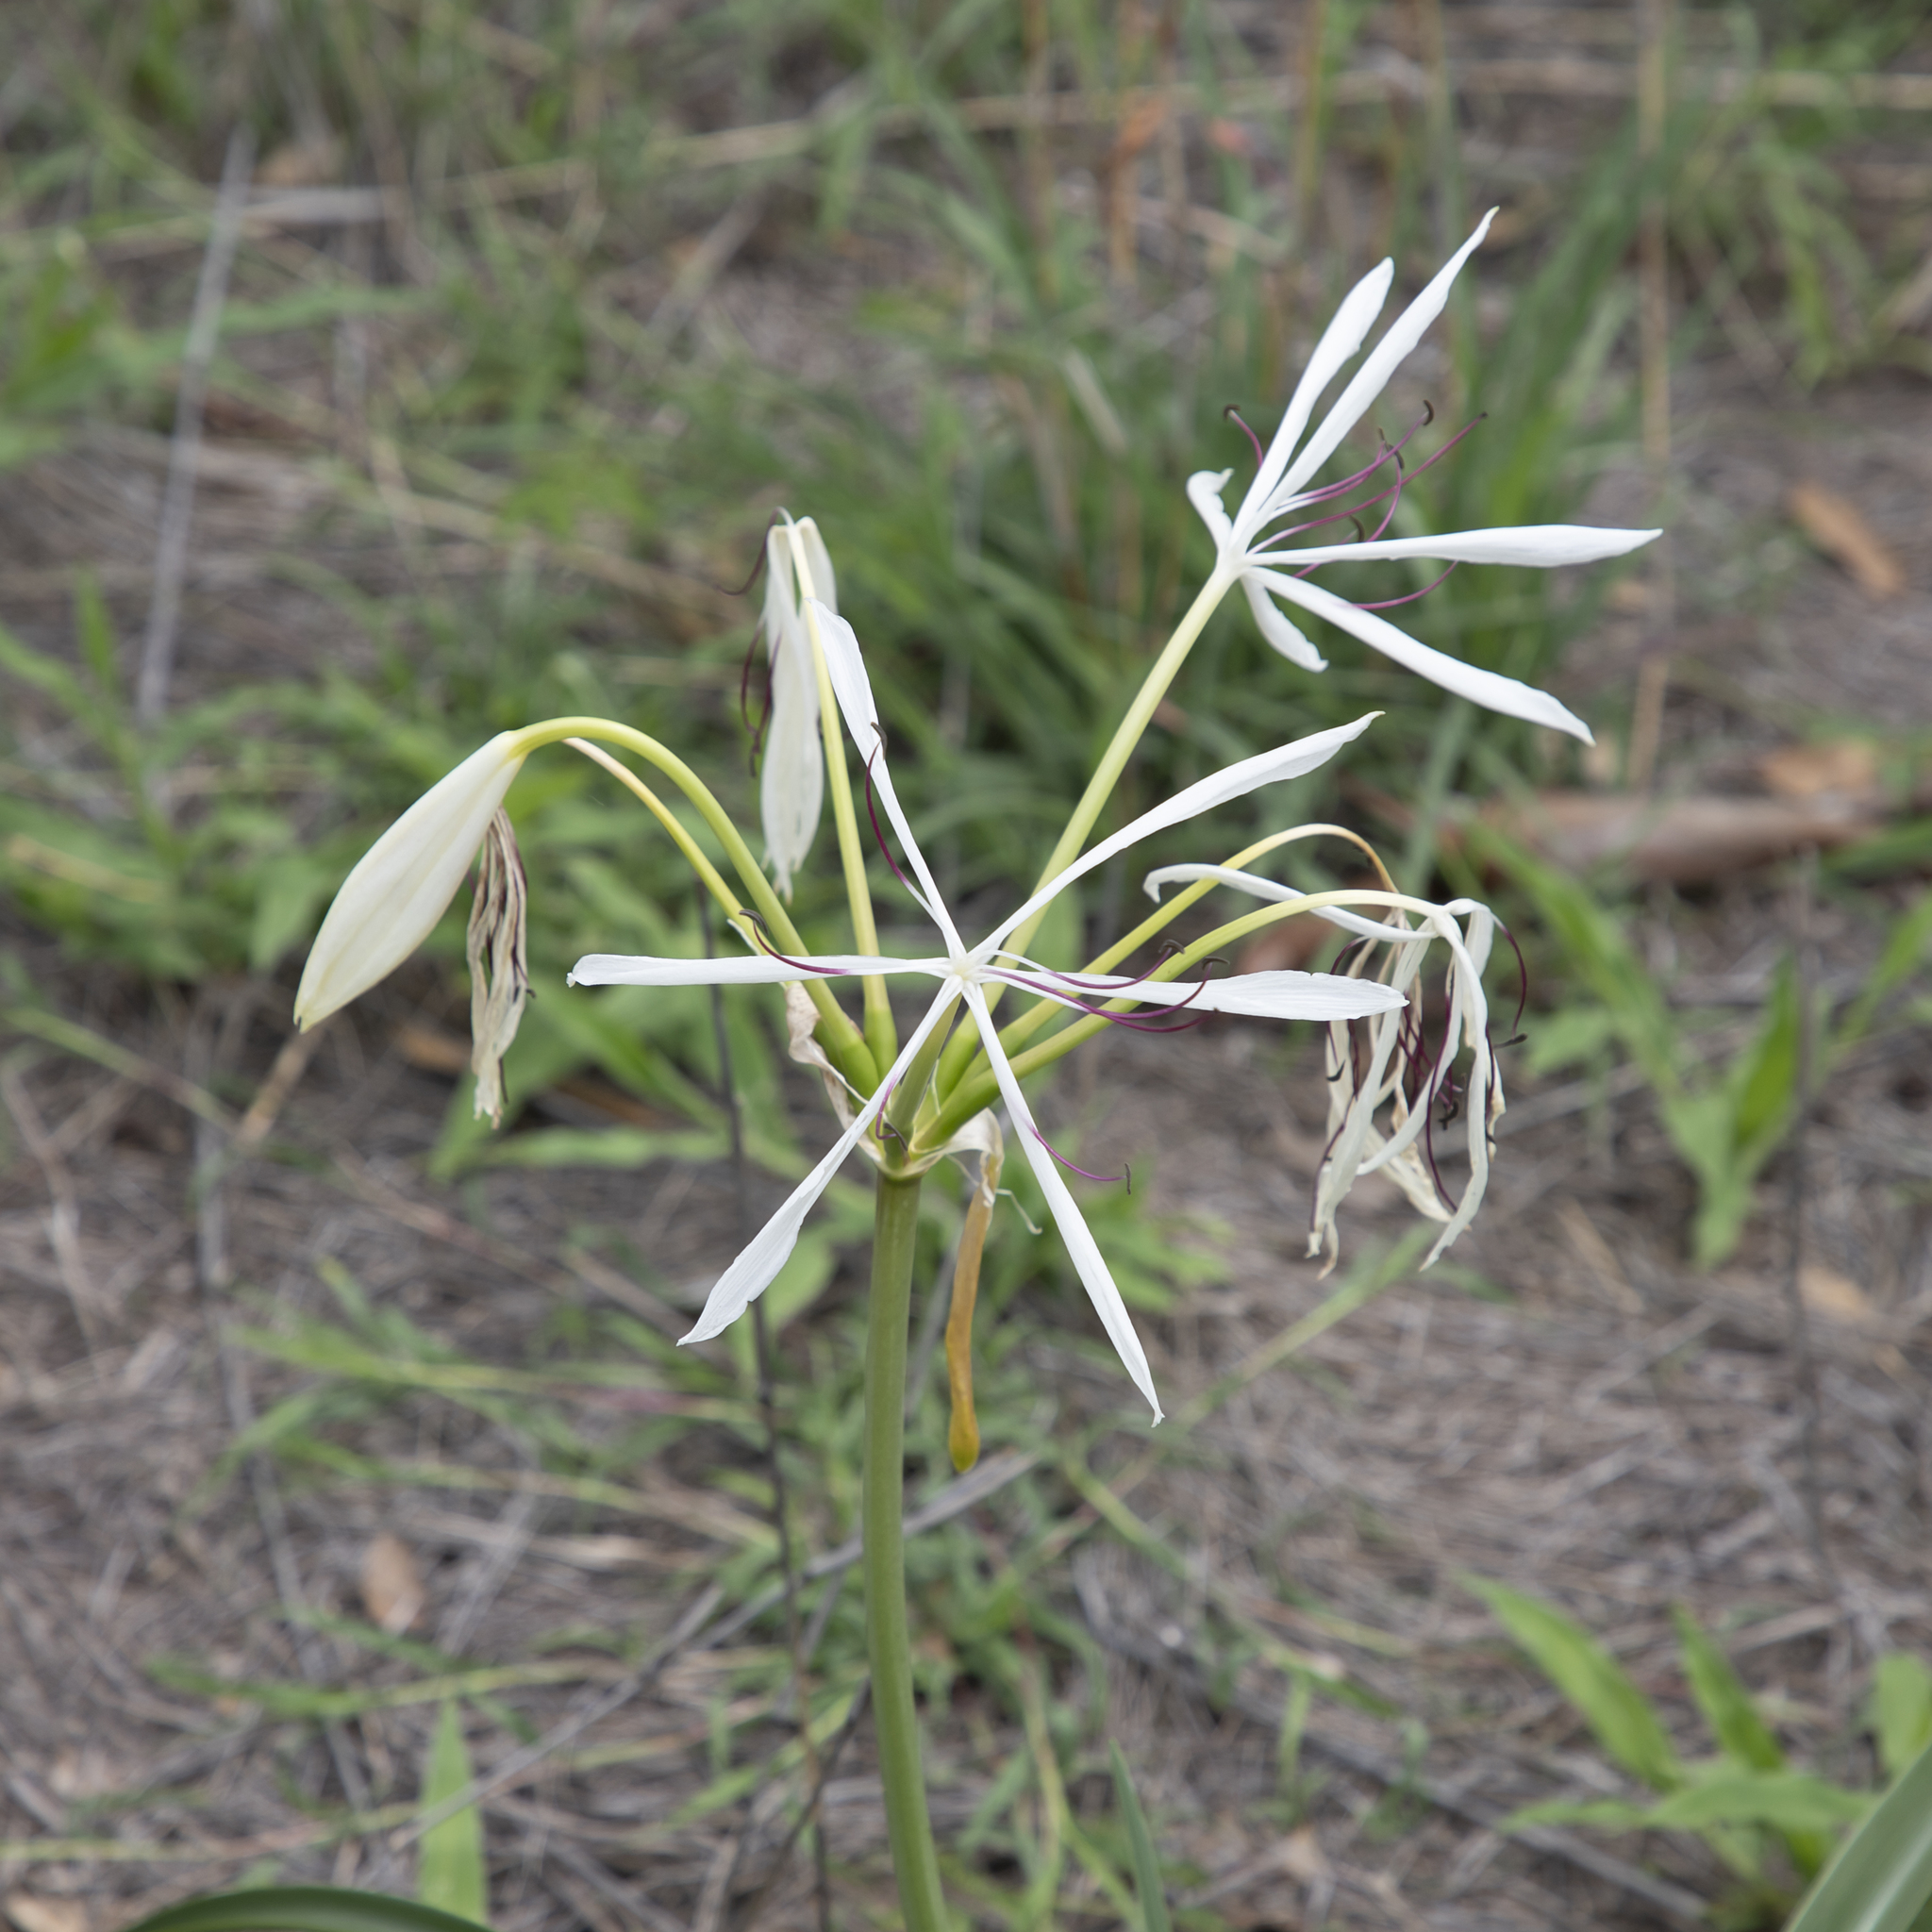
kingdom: Plantae
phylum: Tracheophyta
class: Liliopsida
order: Asparagales
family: Amaryllidaceae
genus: Crinum
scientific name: Crinum arenarium
